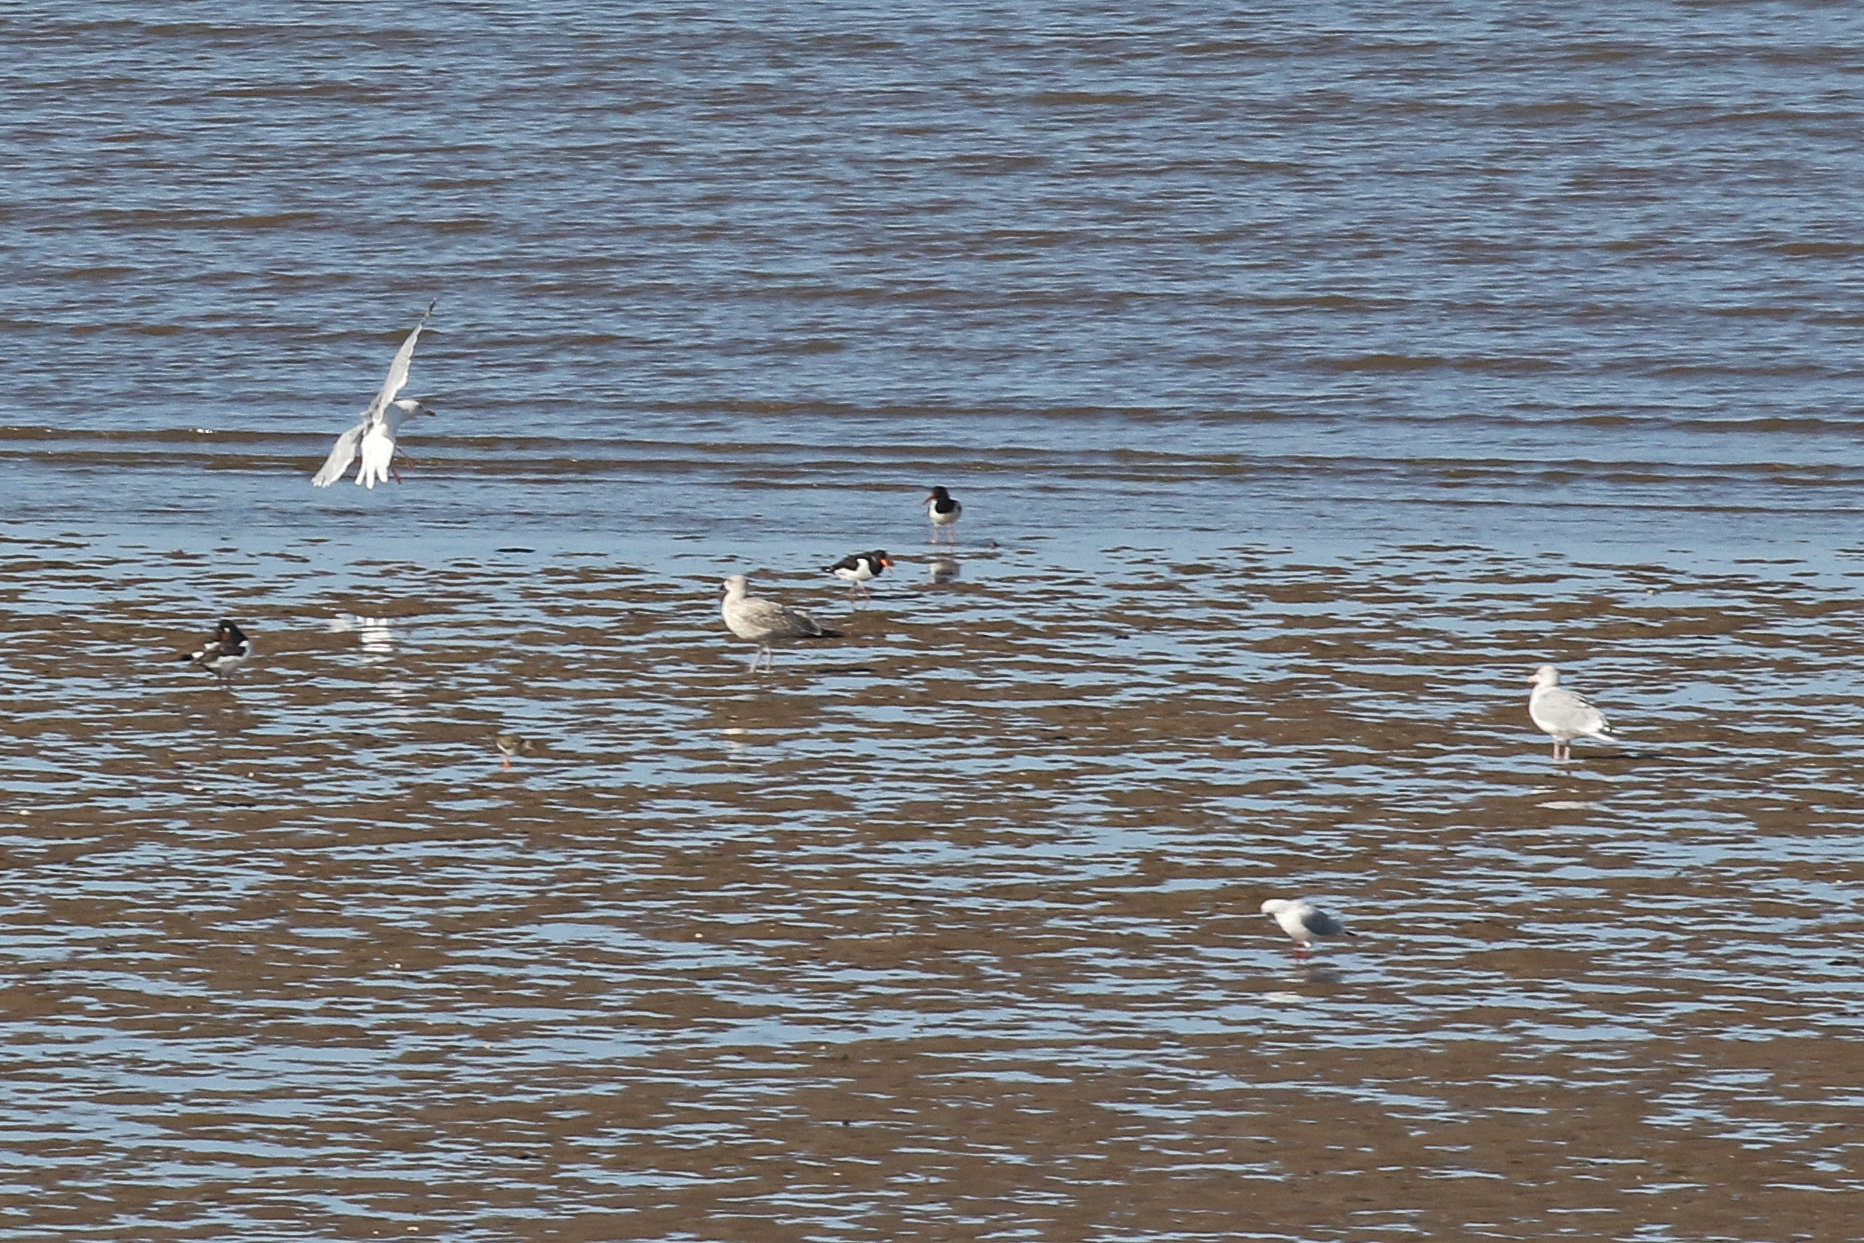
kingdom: Animalia
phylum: Chordata
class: Aves
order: Charadriiformes
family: Scolopacidae
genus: Tringa
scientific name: Tringa totanus
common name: Common redshank
